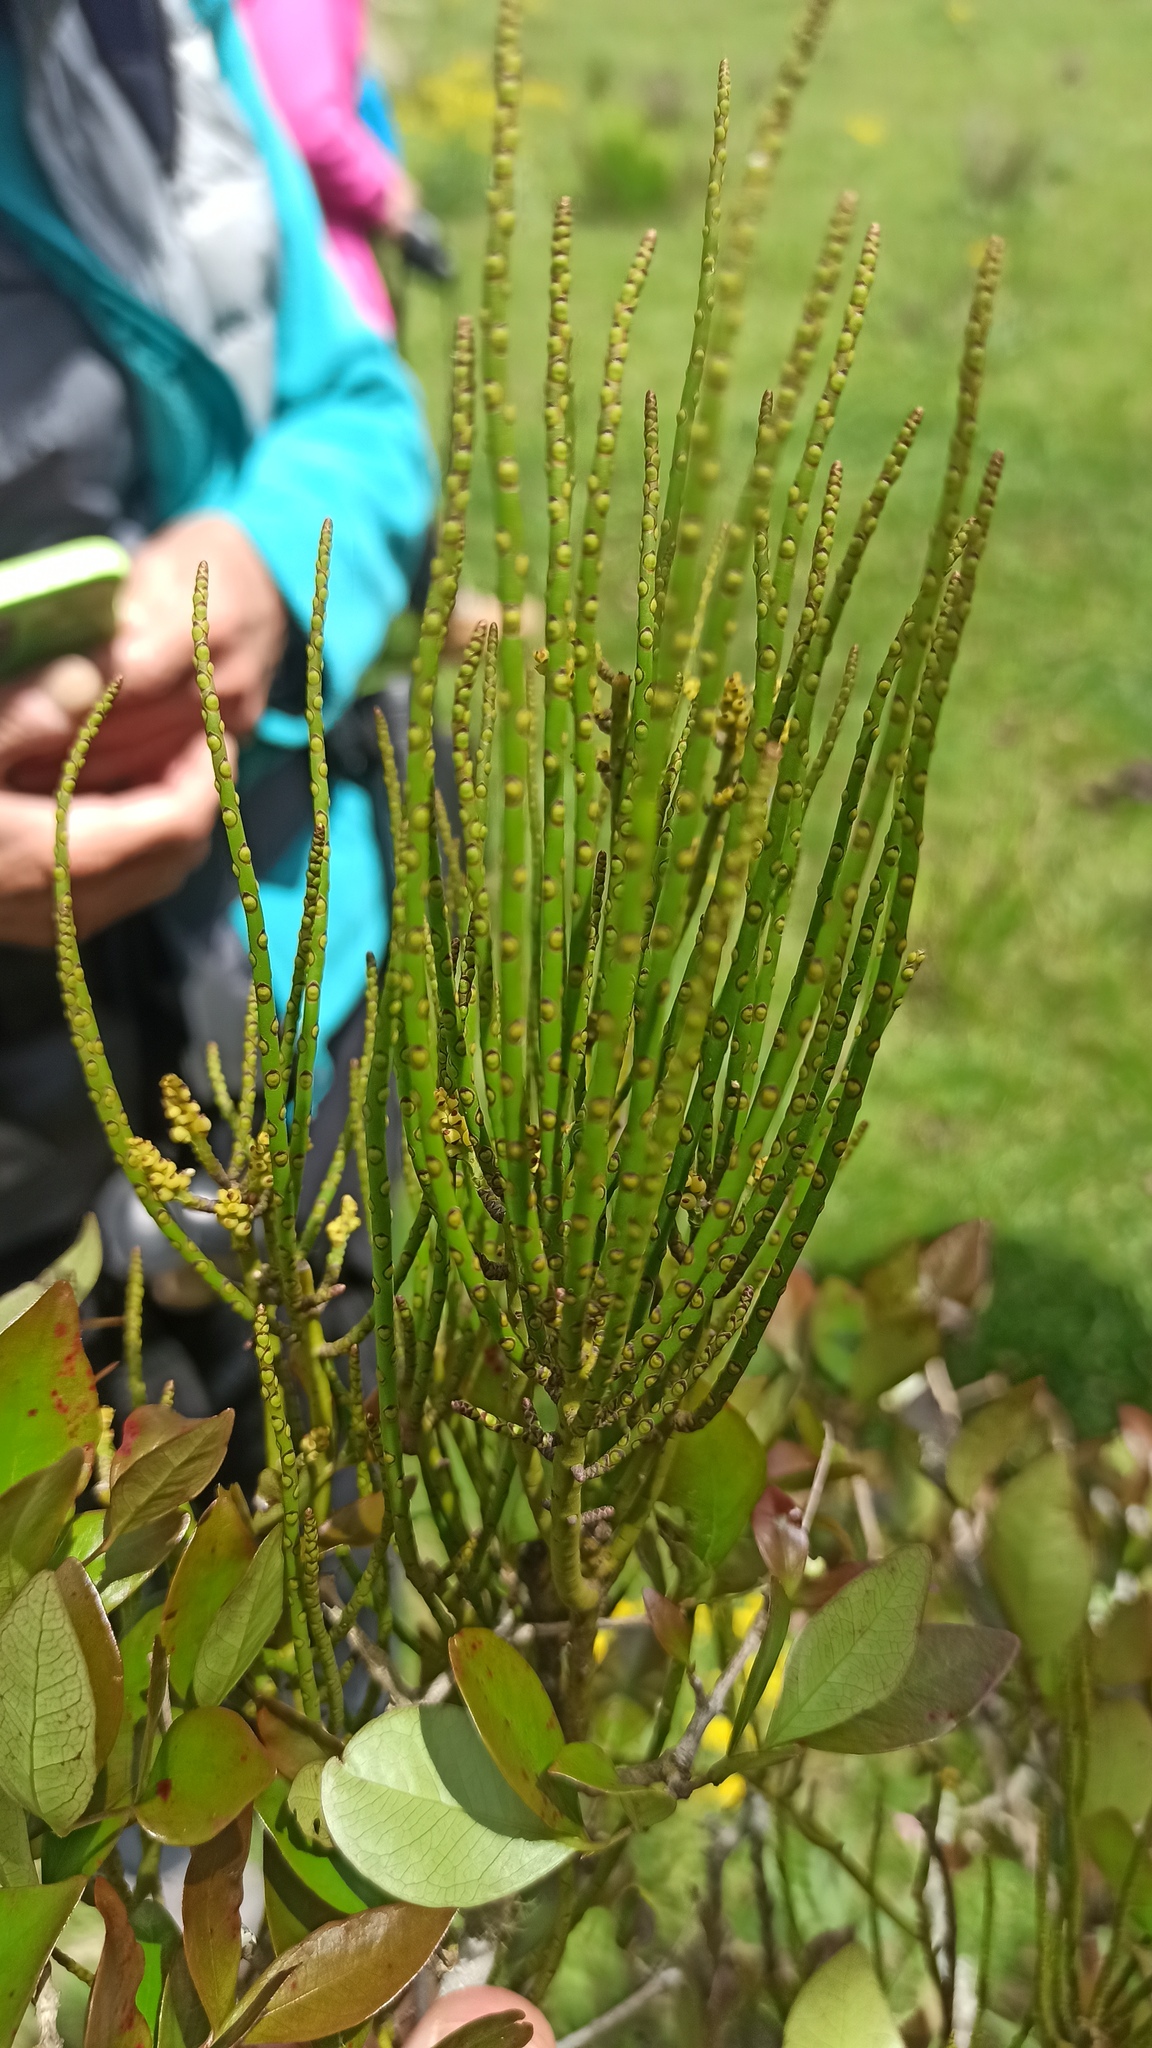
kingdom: Plantae
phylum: Tracheophyta
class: Magnoliopsida
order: Santalales
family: Santalaceae
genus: Eubrachion
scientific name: Eubrachion ambiguum
